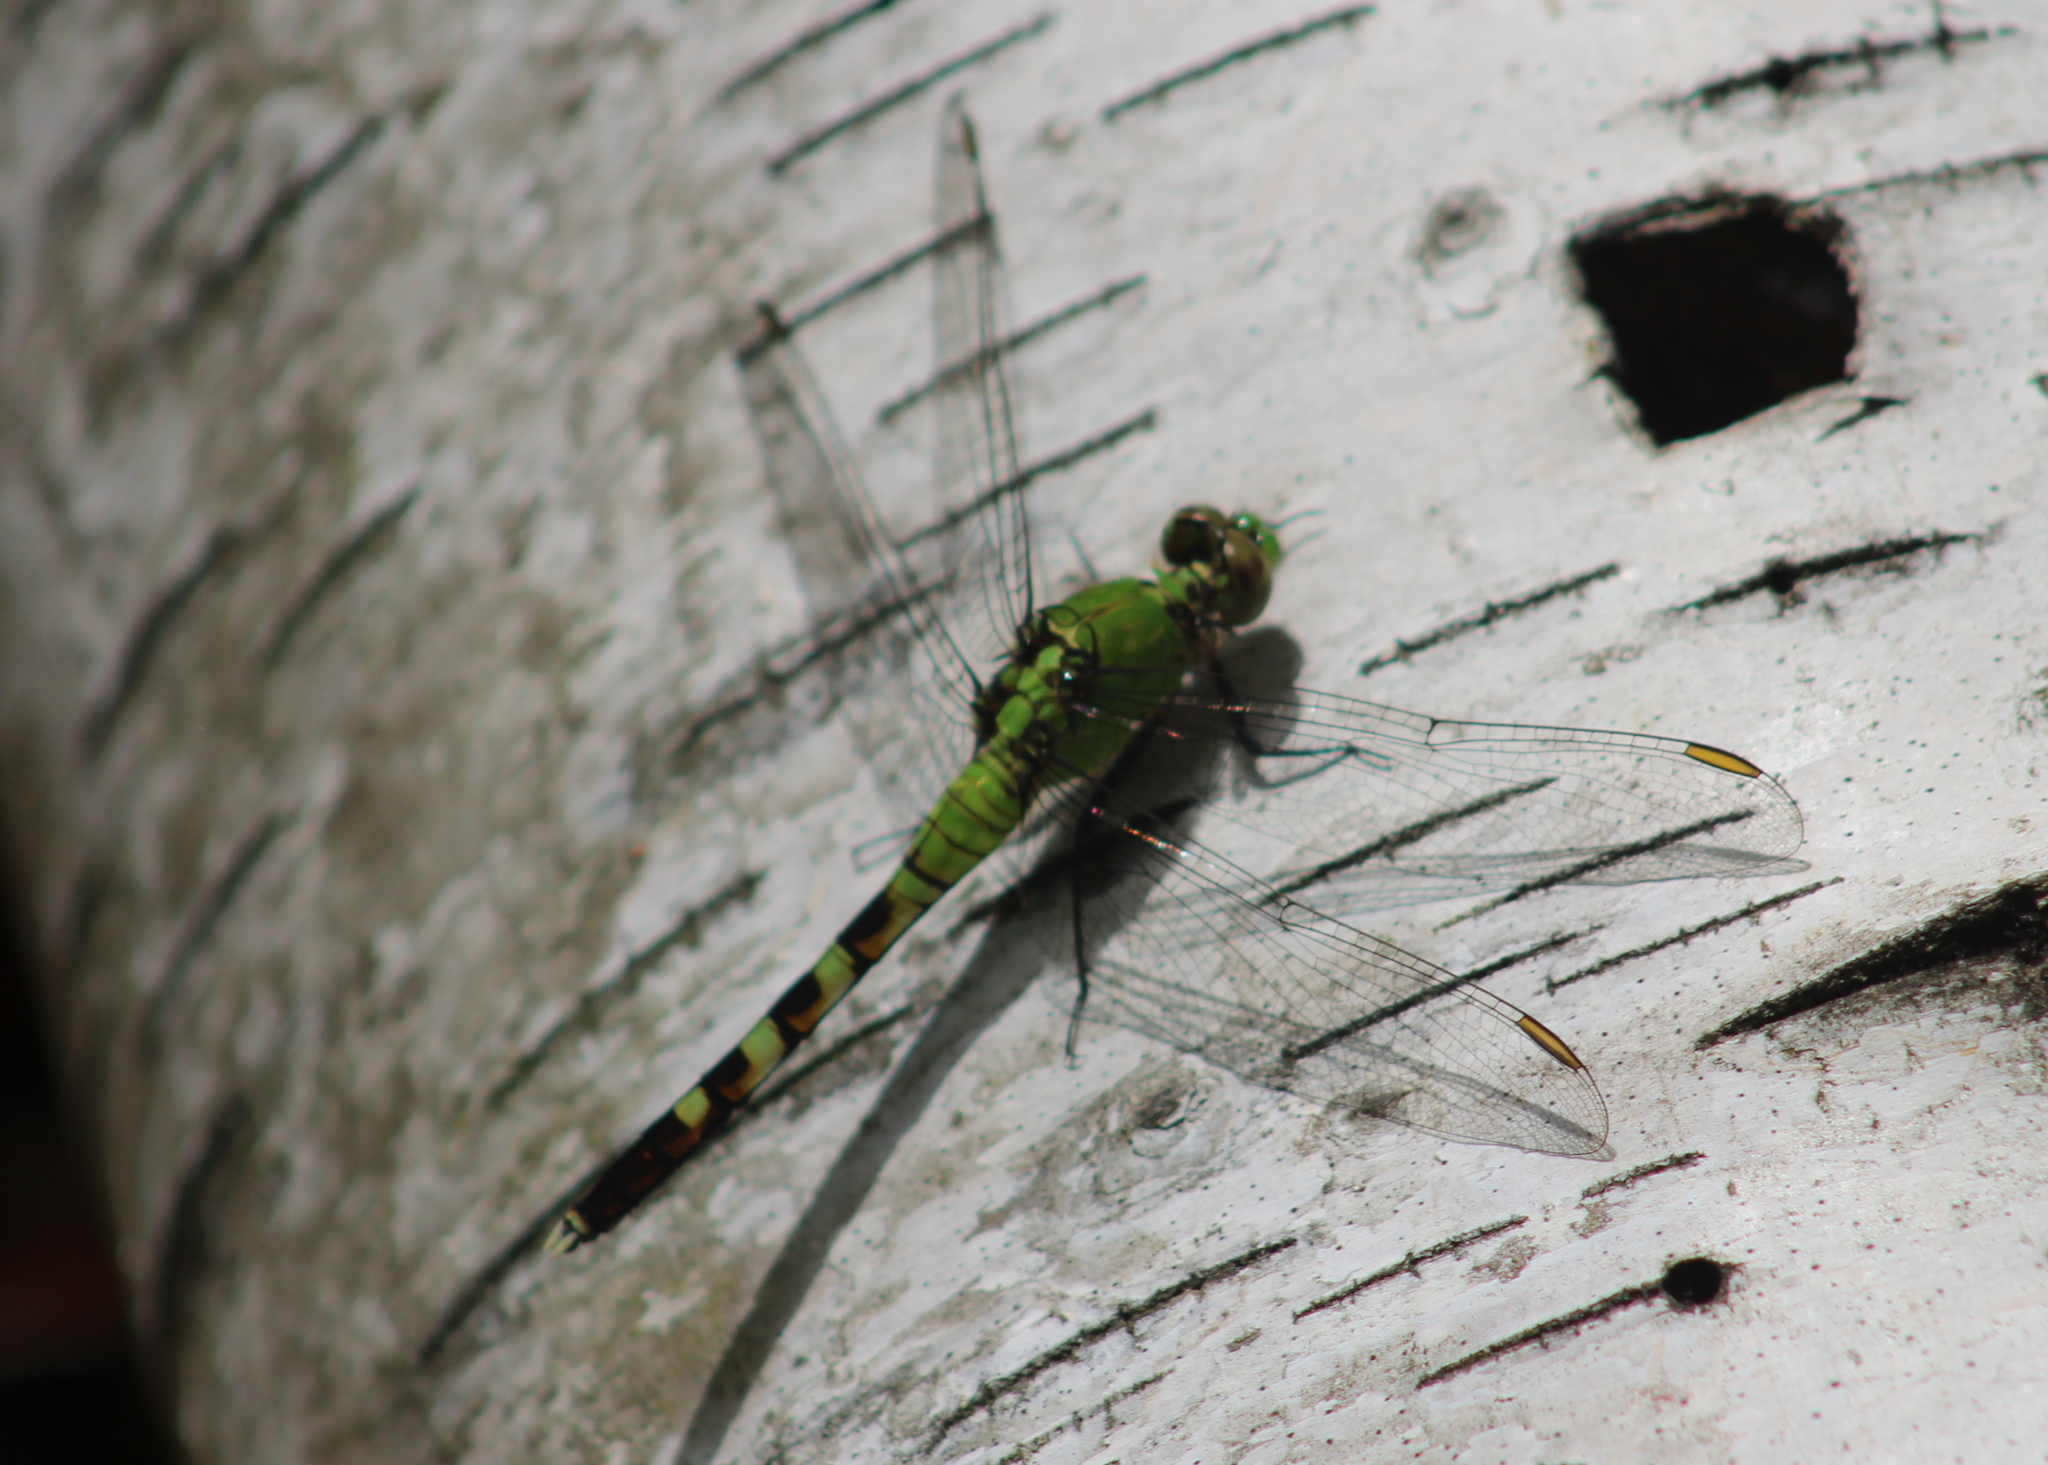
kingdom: Animalia
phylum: Arthropoda
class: Insecta
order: Odonata
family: Libellulidae
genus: Erythemis
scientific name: Erythemis simplicicollis
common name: Eastern pondhawk
